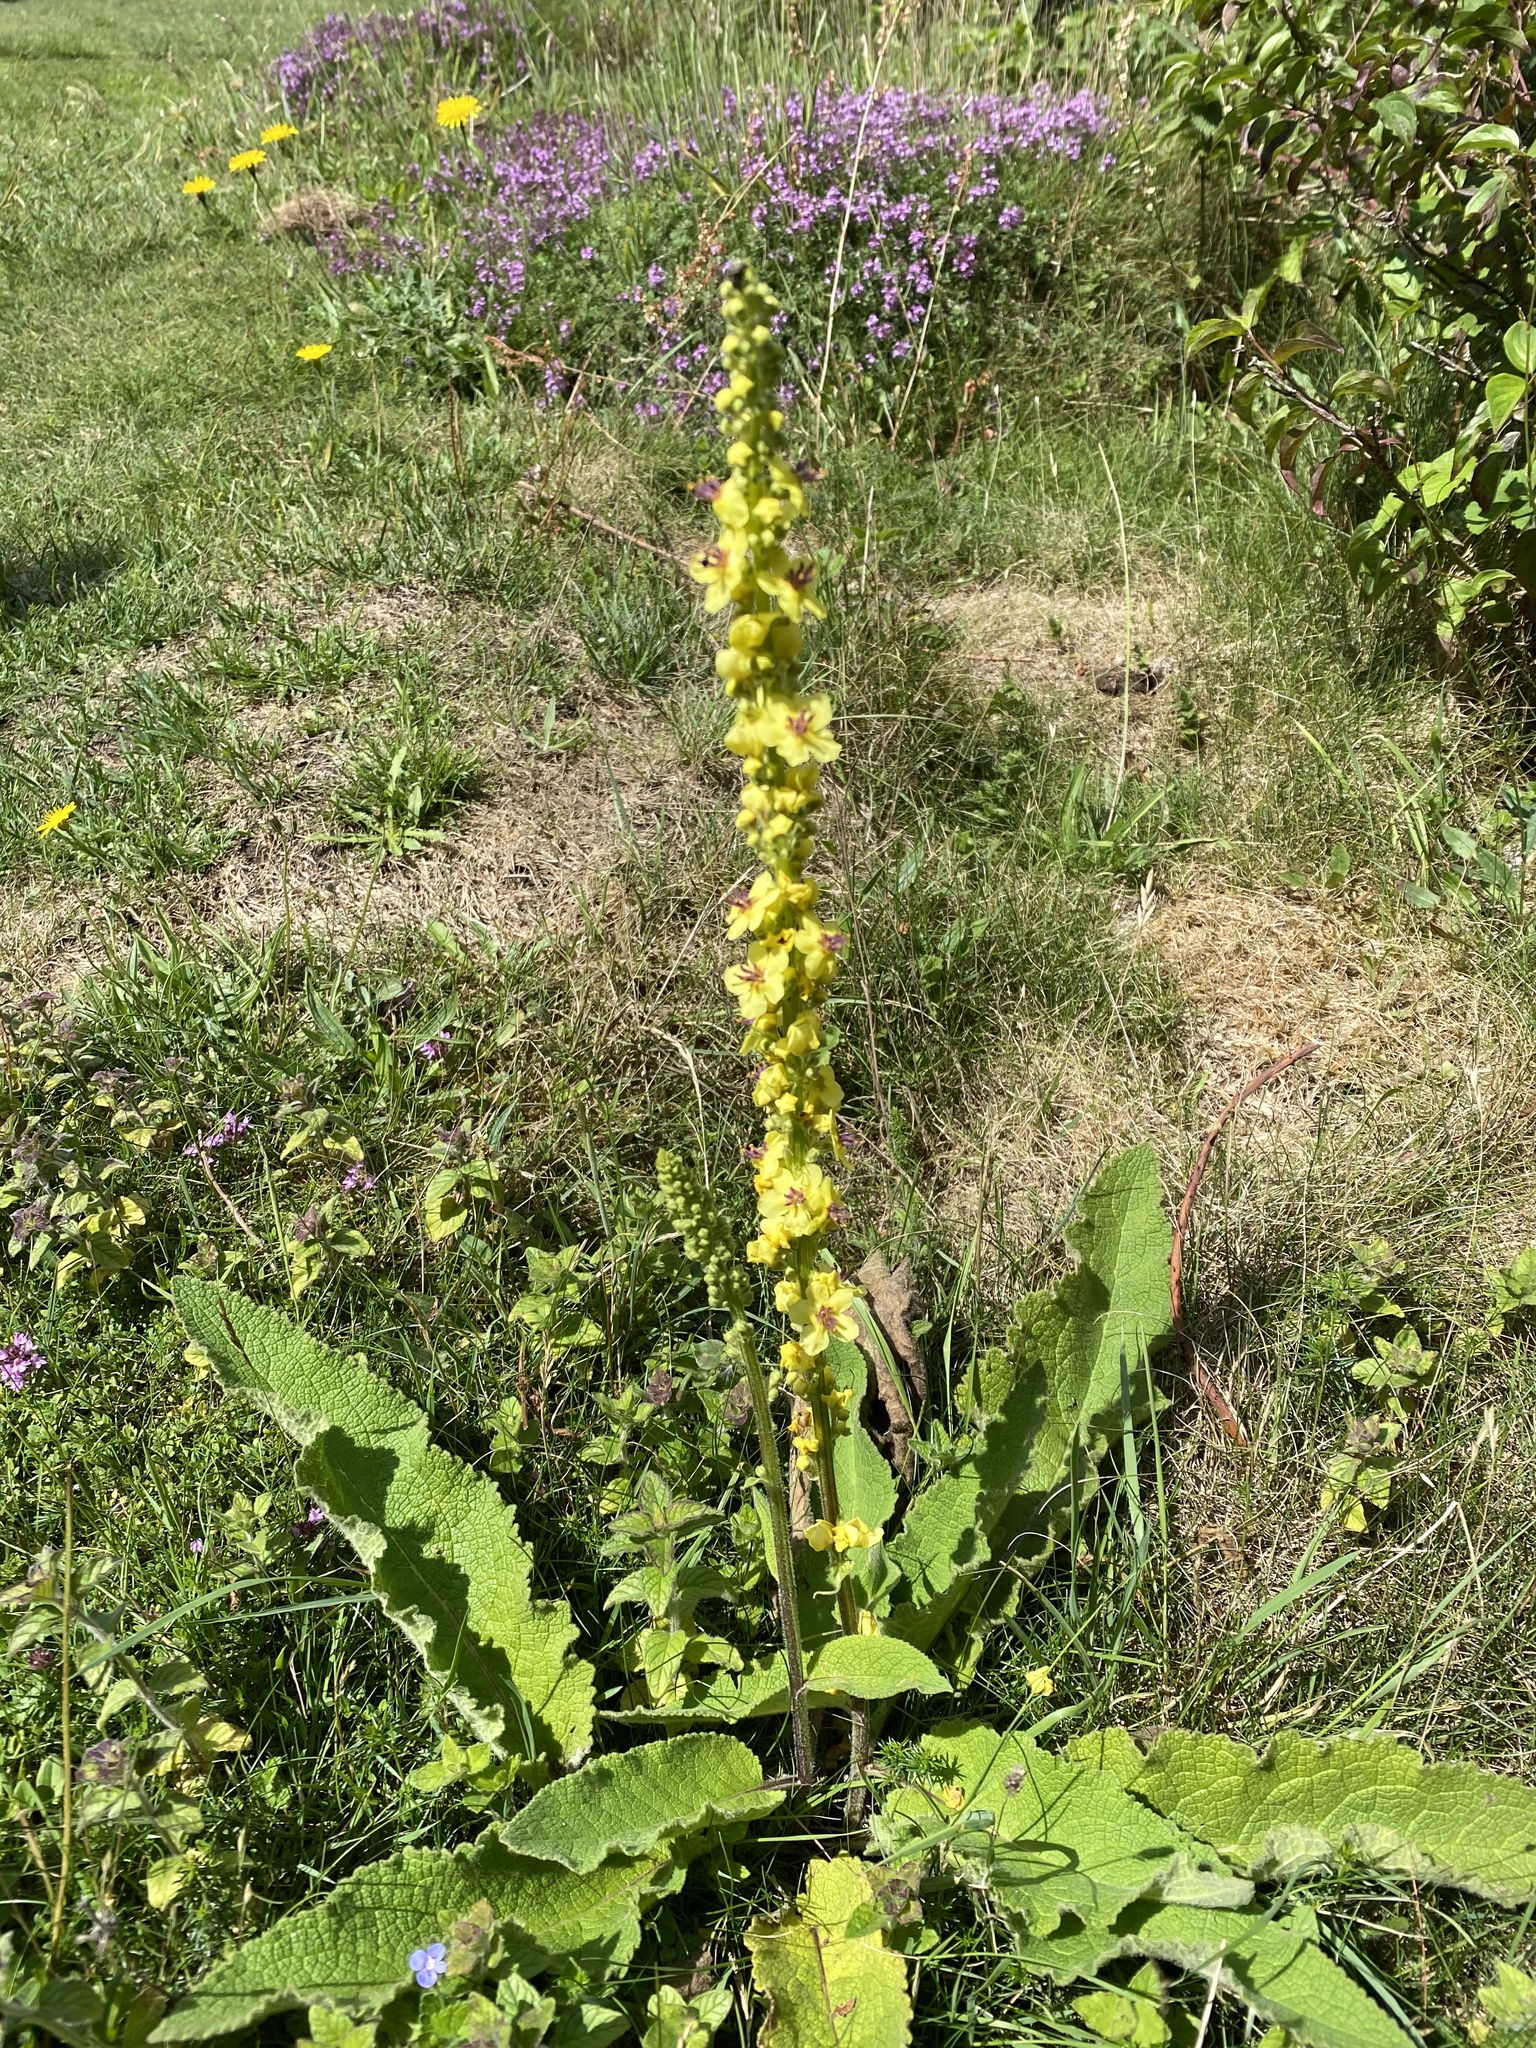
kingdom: Plantae
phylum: Tracheophyta
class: Magnoliopsida
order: Lamiales
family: Scrophulariaceae
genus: Verbascum
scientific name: Verbascum nigrum
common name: Dark mullein
